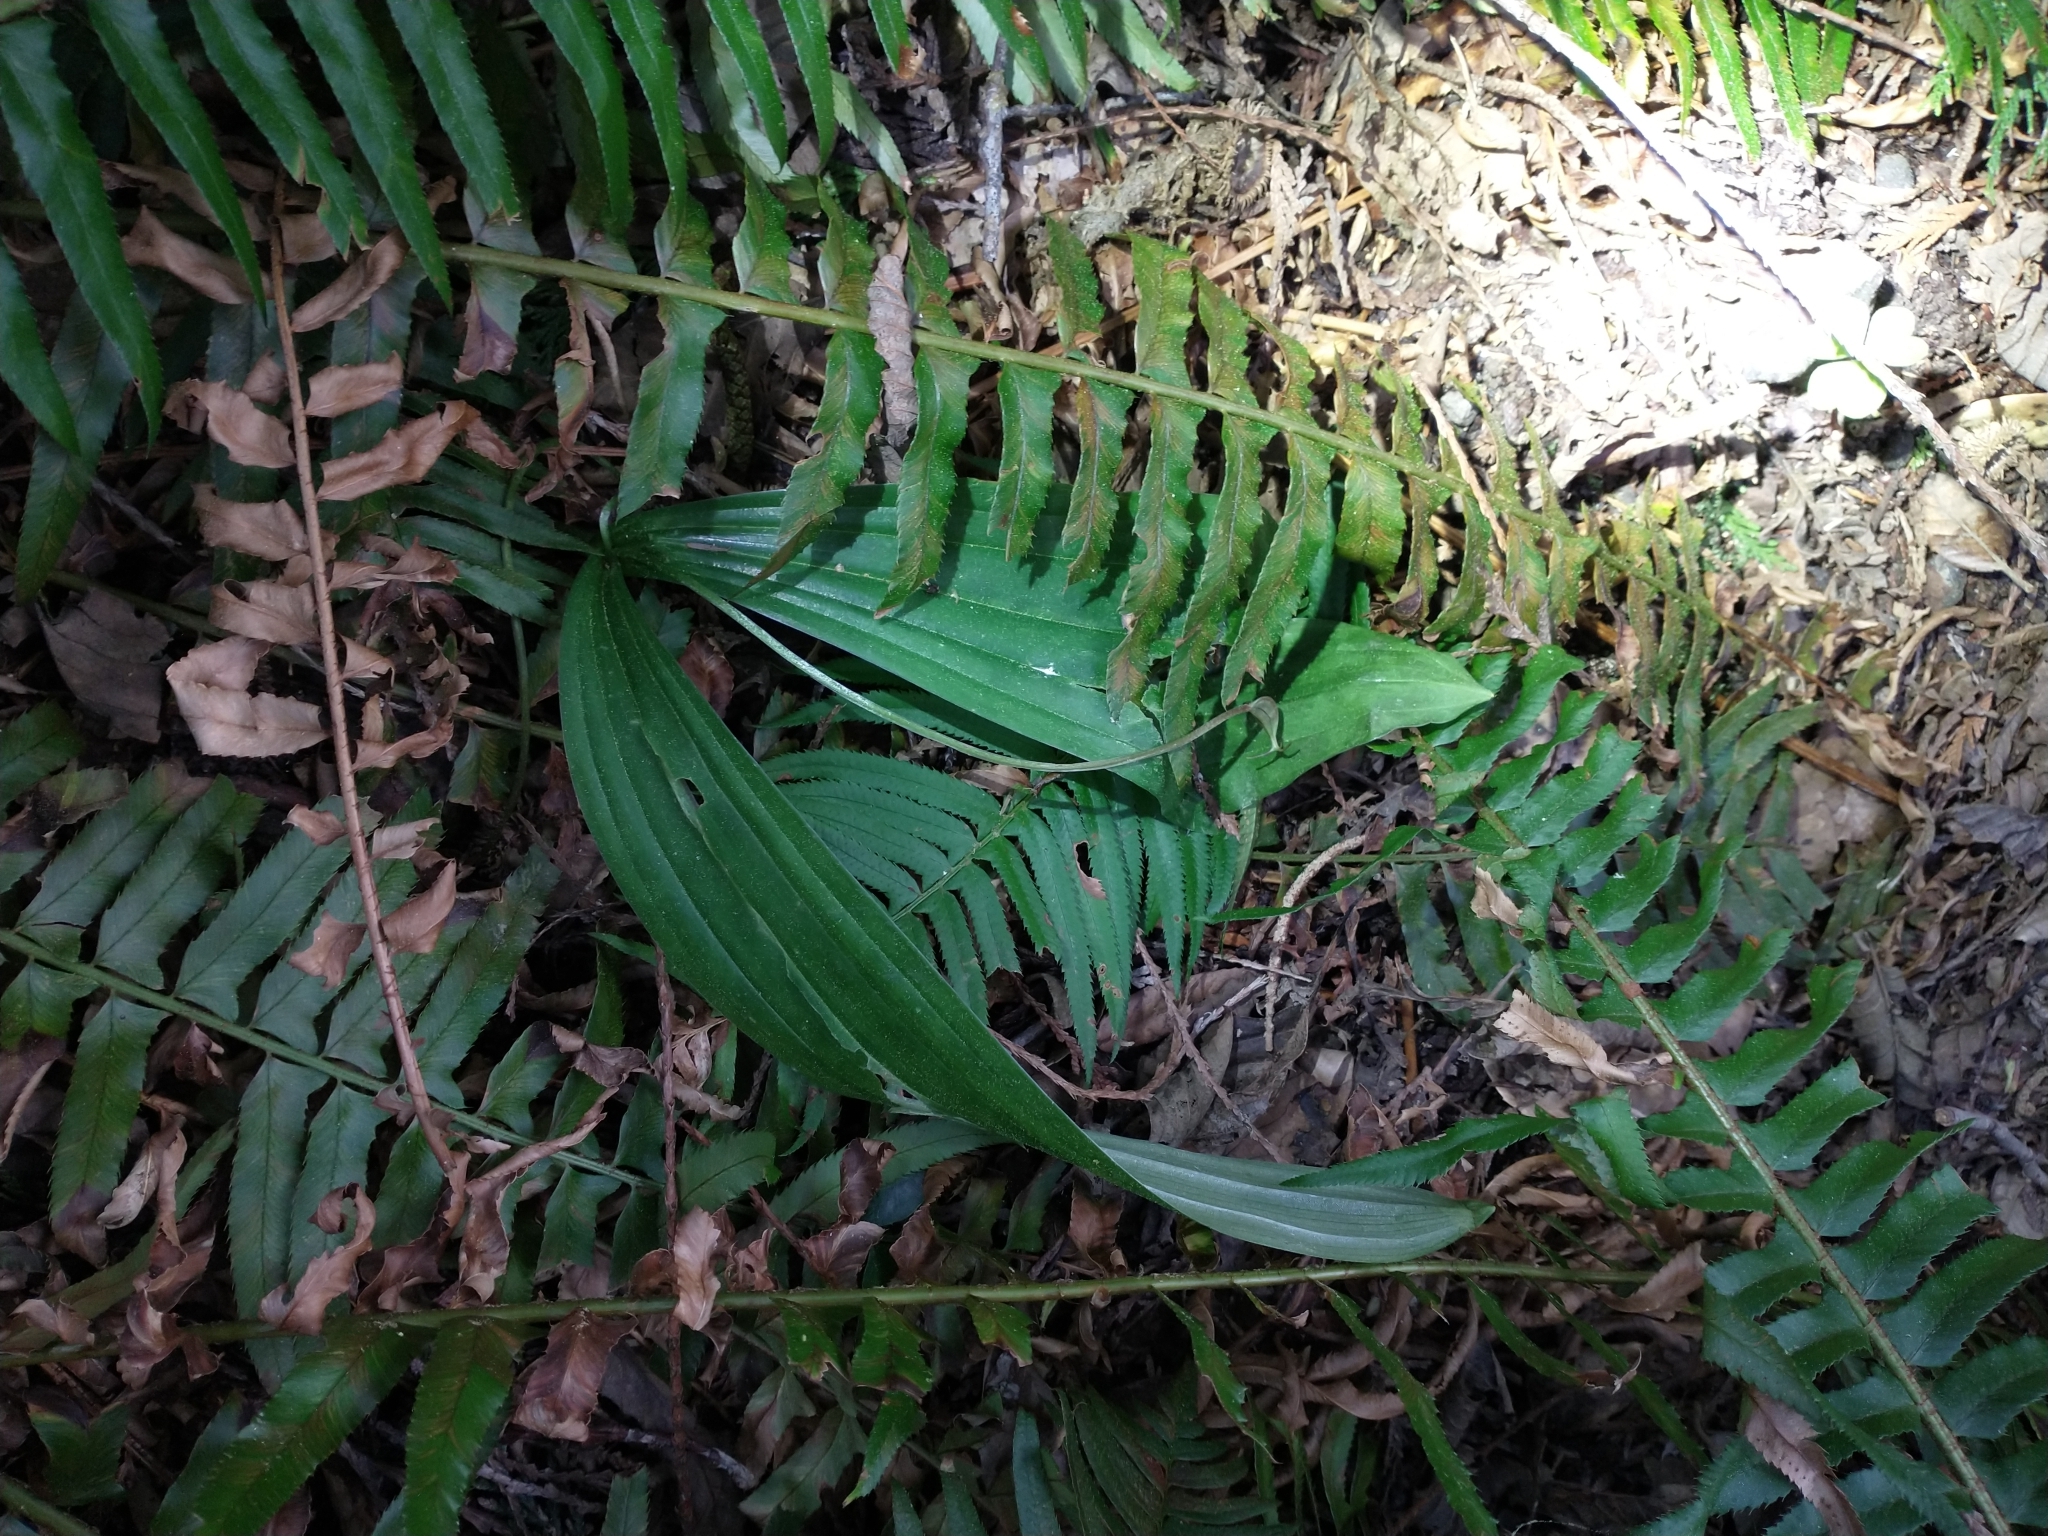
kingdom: Plantae
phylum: Tracheophyta
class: Polypodiopsida
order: Polypodiales
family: Dryopteridaceae
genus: Polystichum
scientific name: Polystichum munitum
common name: Western sword-fern
